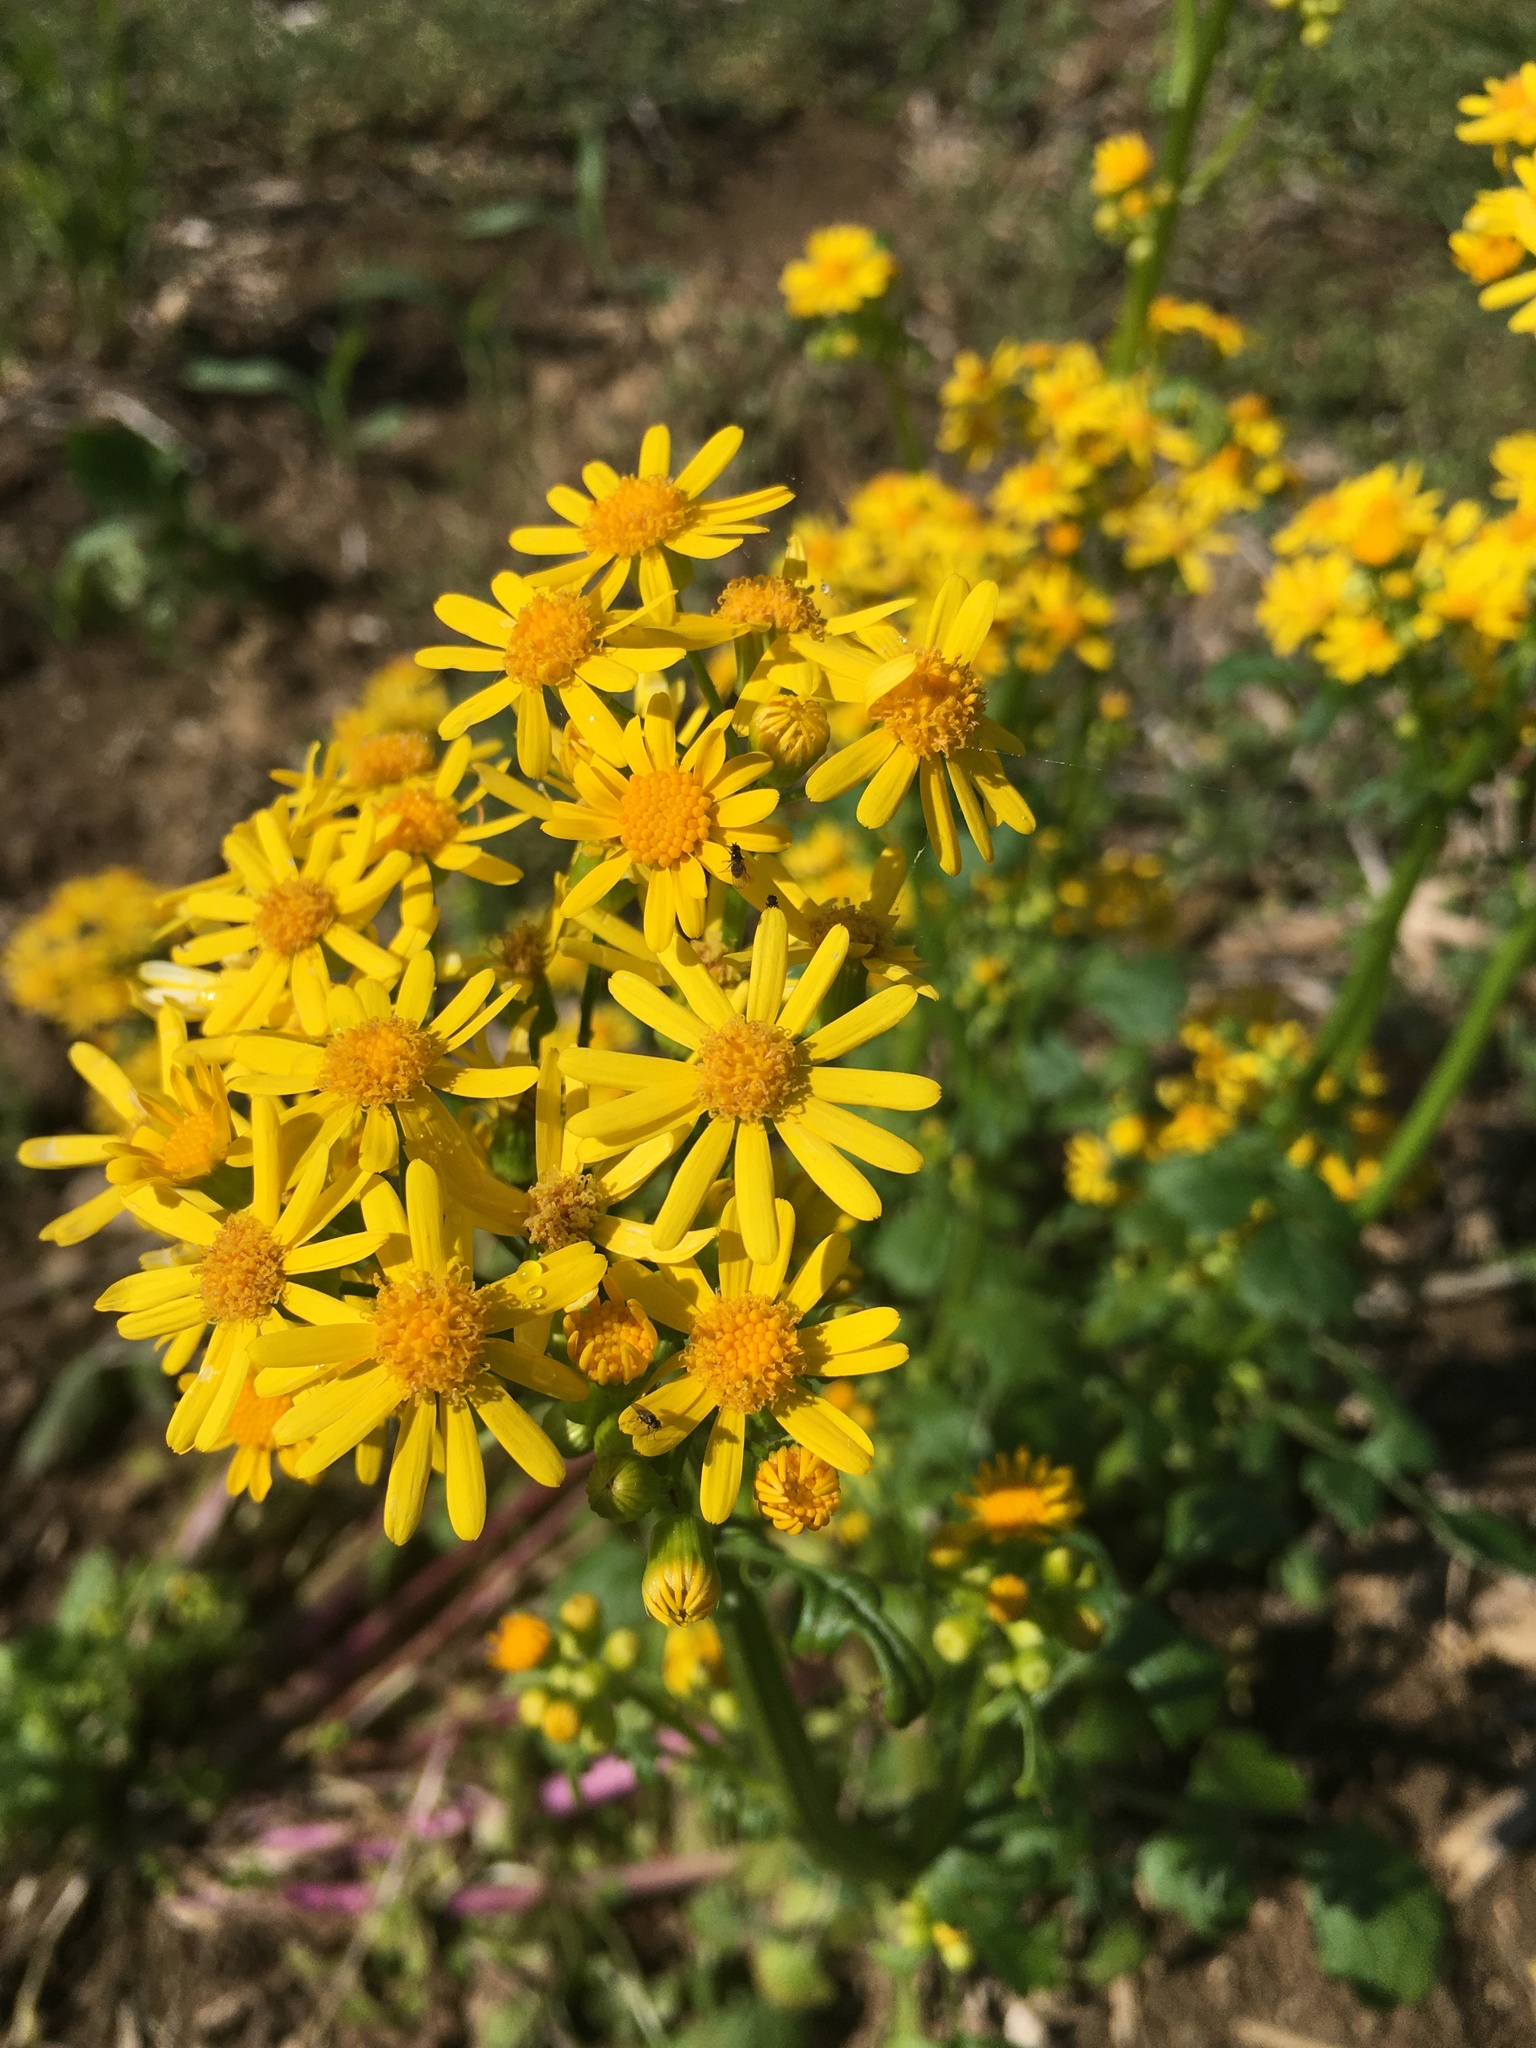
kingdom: Plantae
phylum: Tracheophyta
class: Magnoliopsida
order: Asterales
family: Asteraceae
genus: Packera
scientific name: Packera glabella
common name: Butterweed
